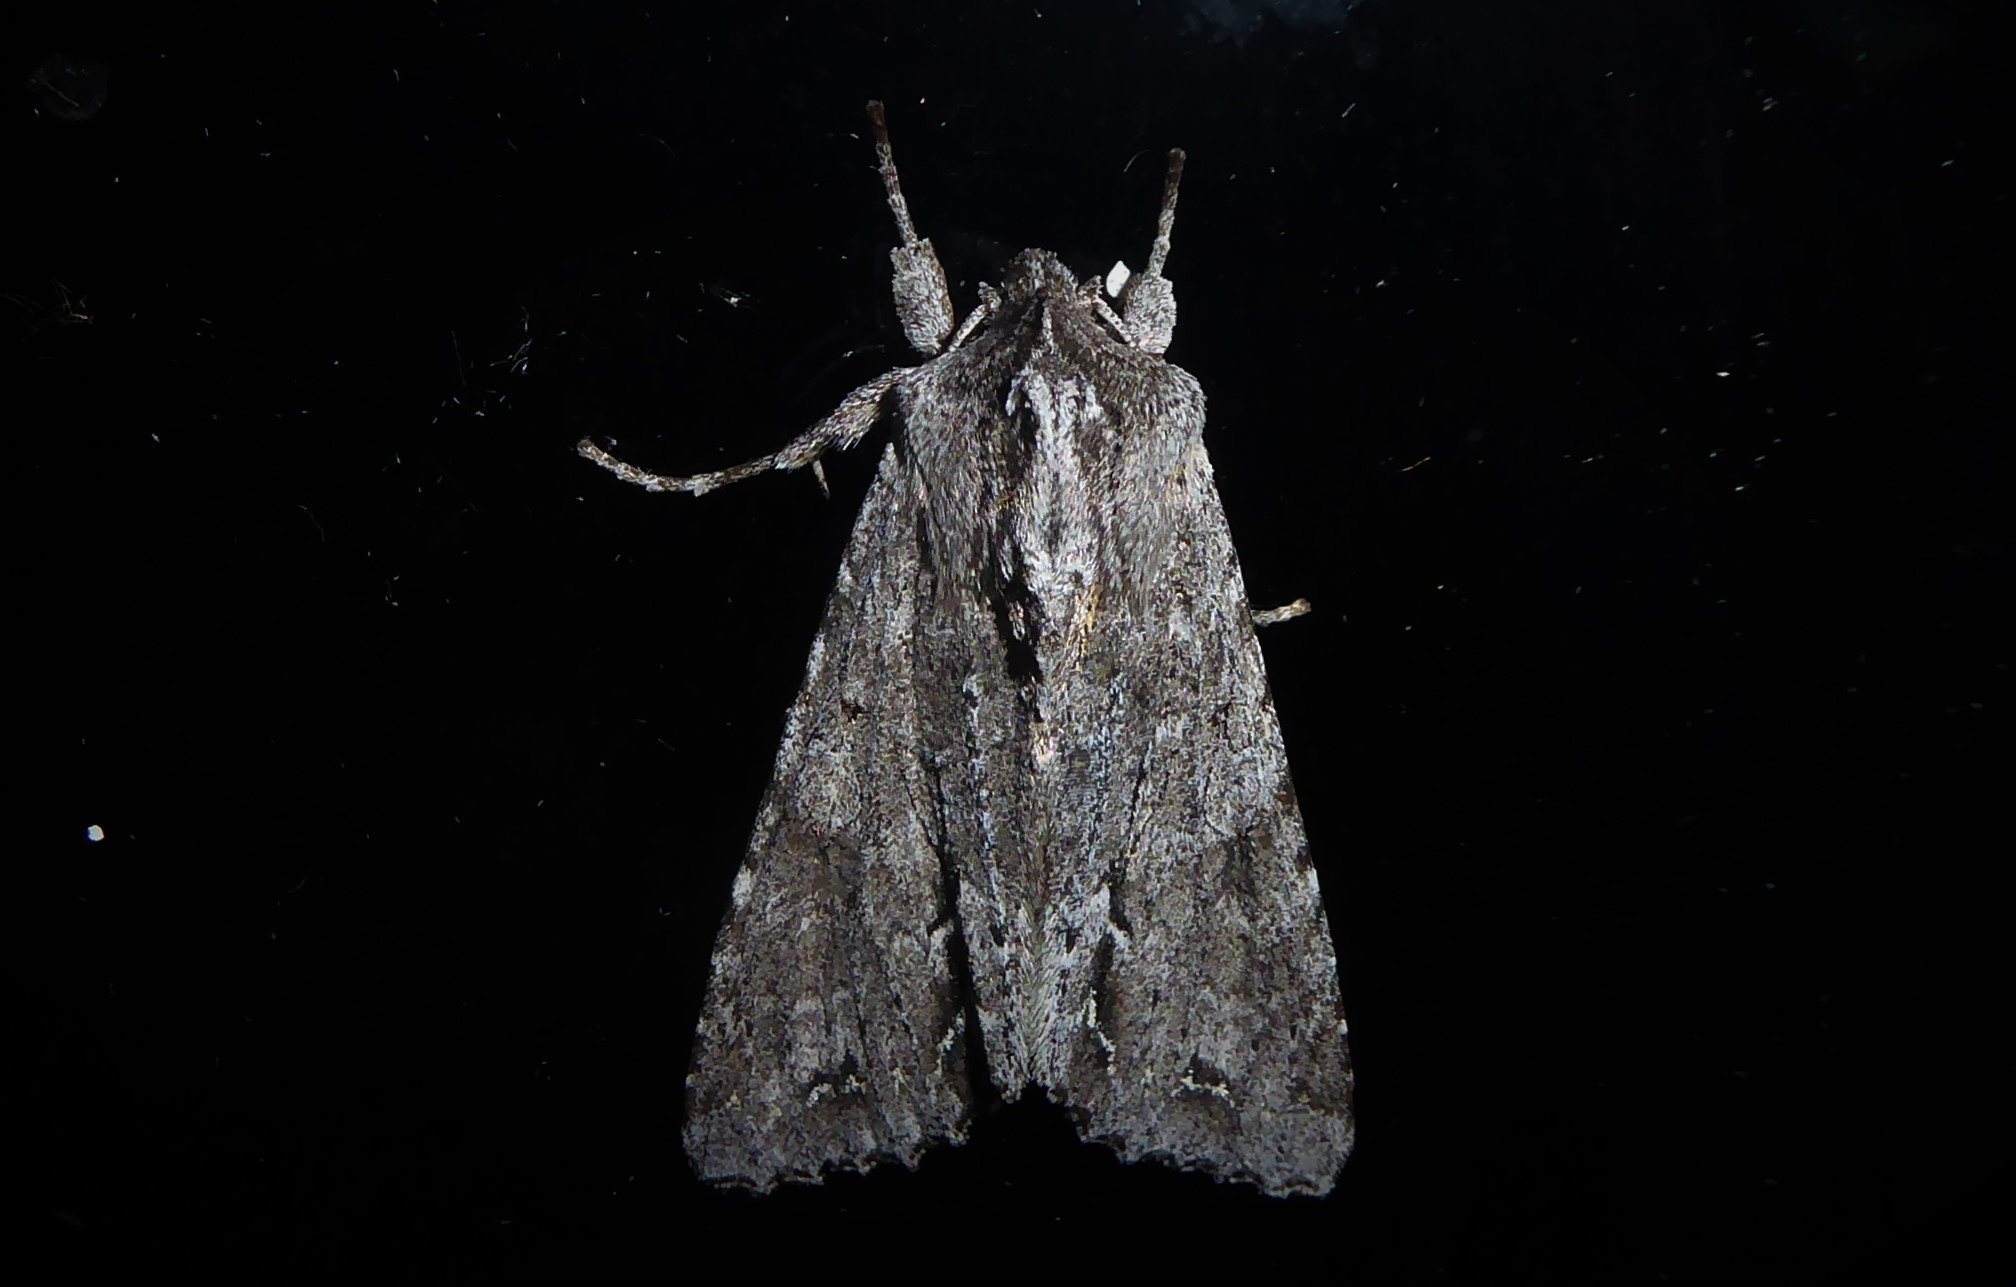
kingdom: Animalia
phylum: Arthropoda
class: Insecta
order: Lepidoptera
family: Noctuidae
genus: Ichneutica
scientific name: Ichneutica
